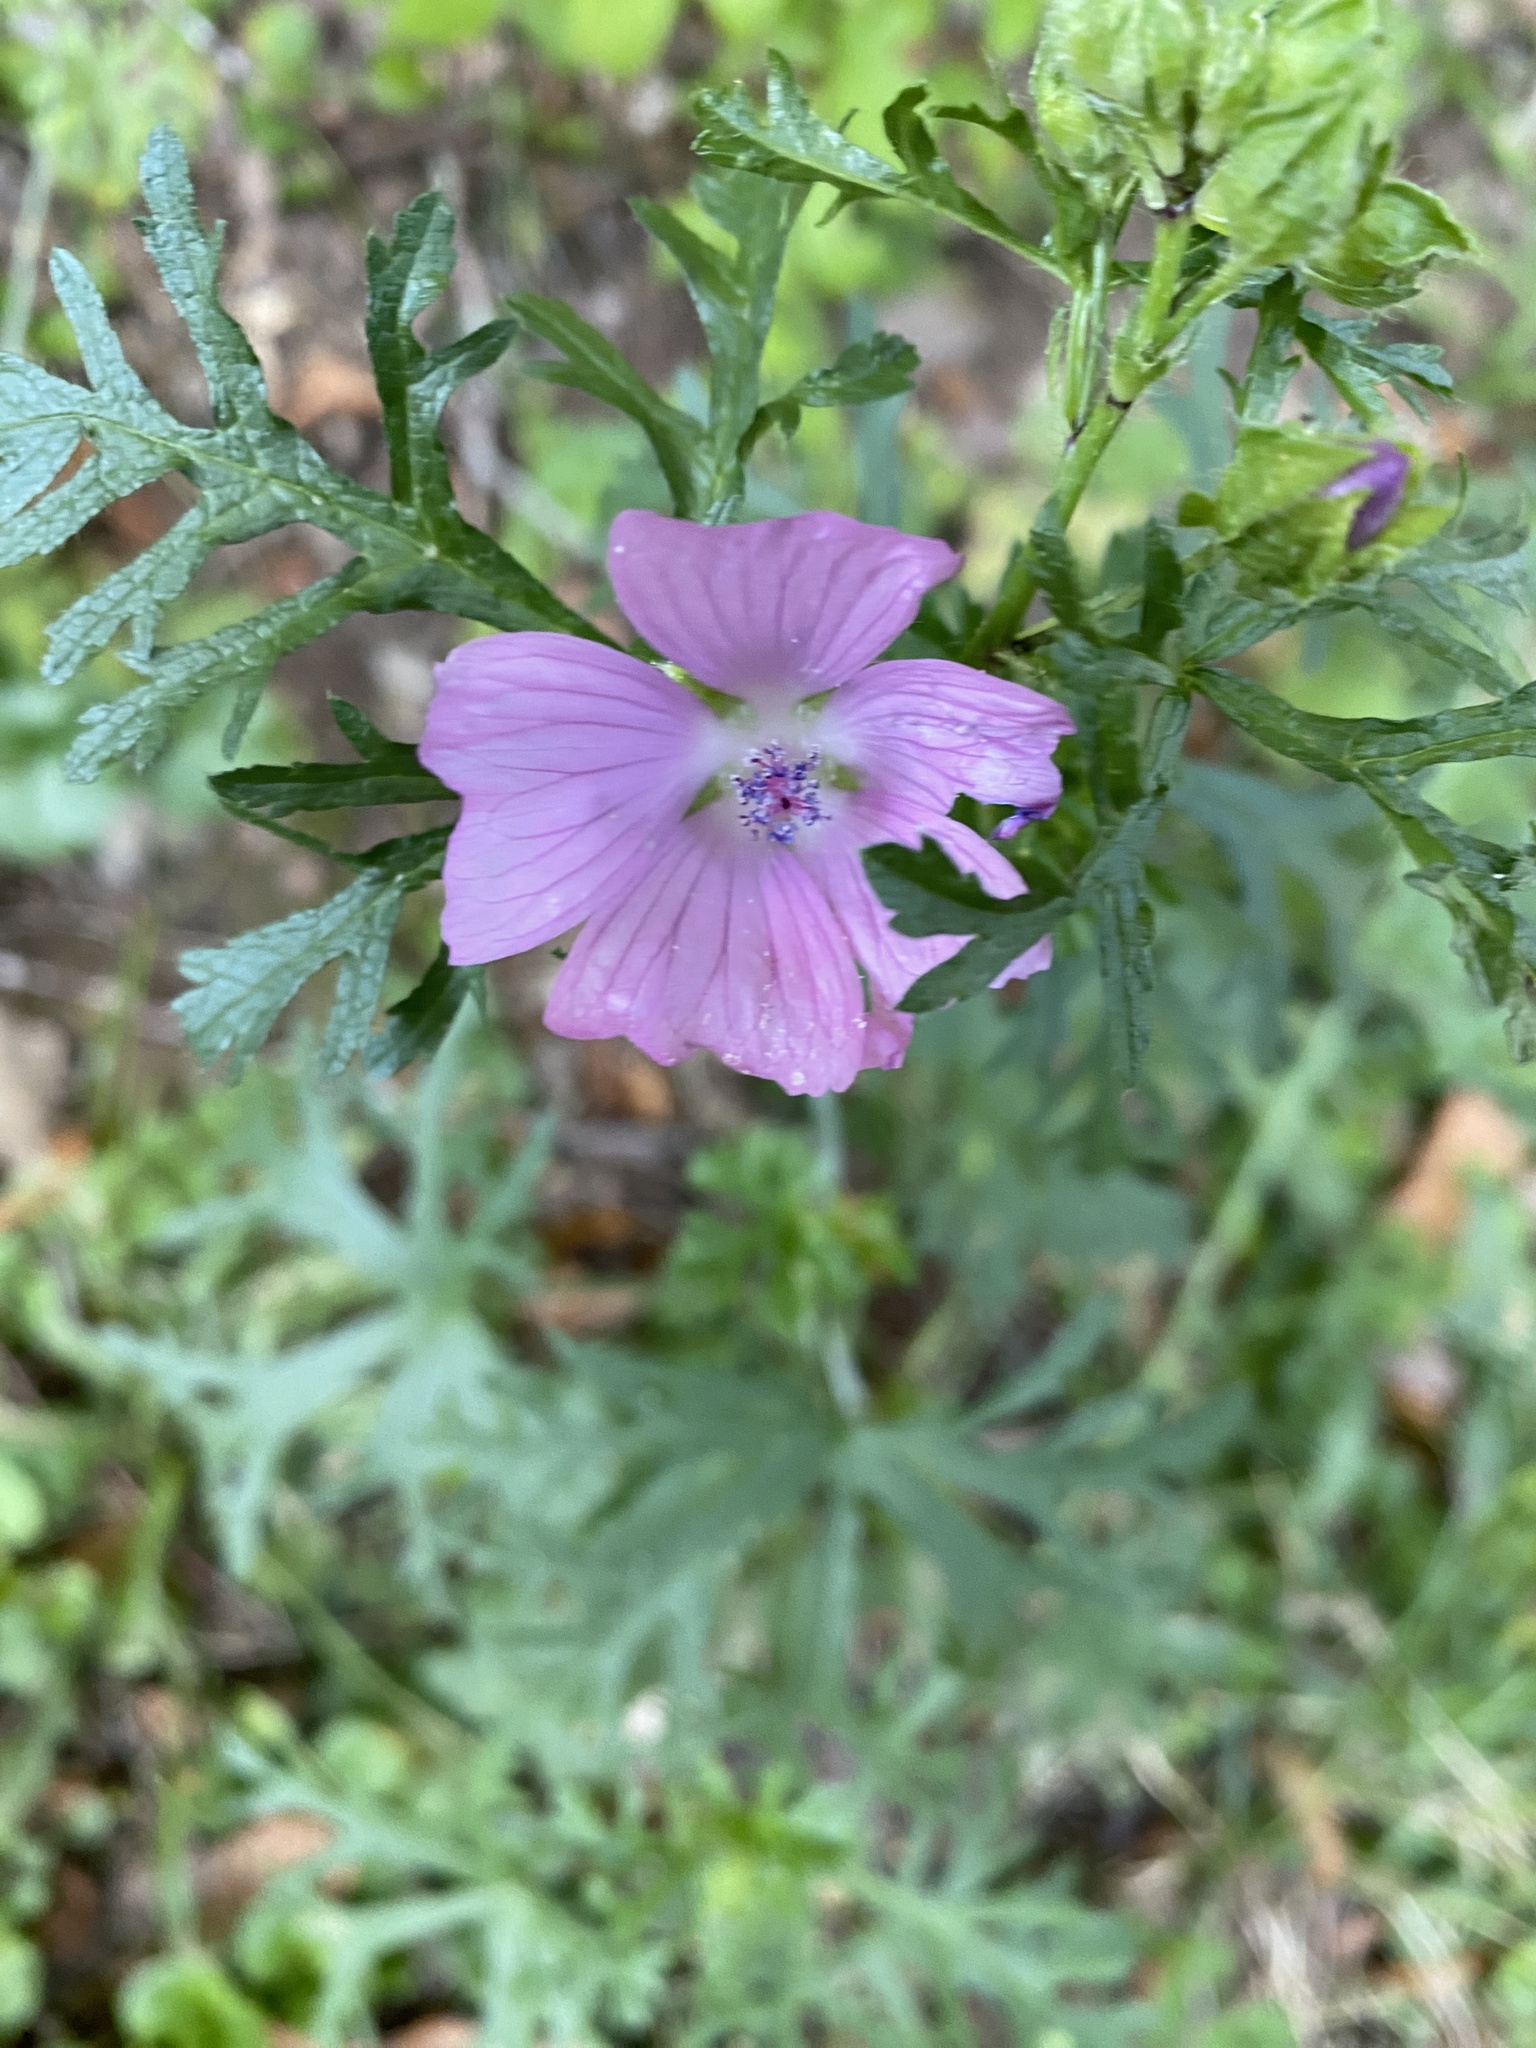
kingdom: Plantae
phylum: Tracheophyta
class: Magnoliopsida
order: Malvales
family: Malvaceae
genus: Malva
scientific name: Malva moschata
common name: Musk mallow
